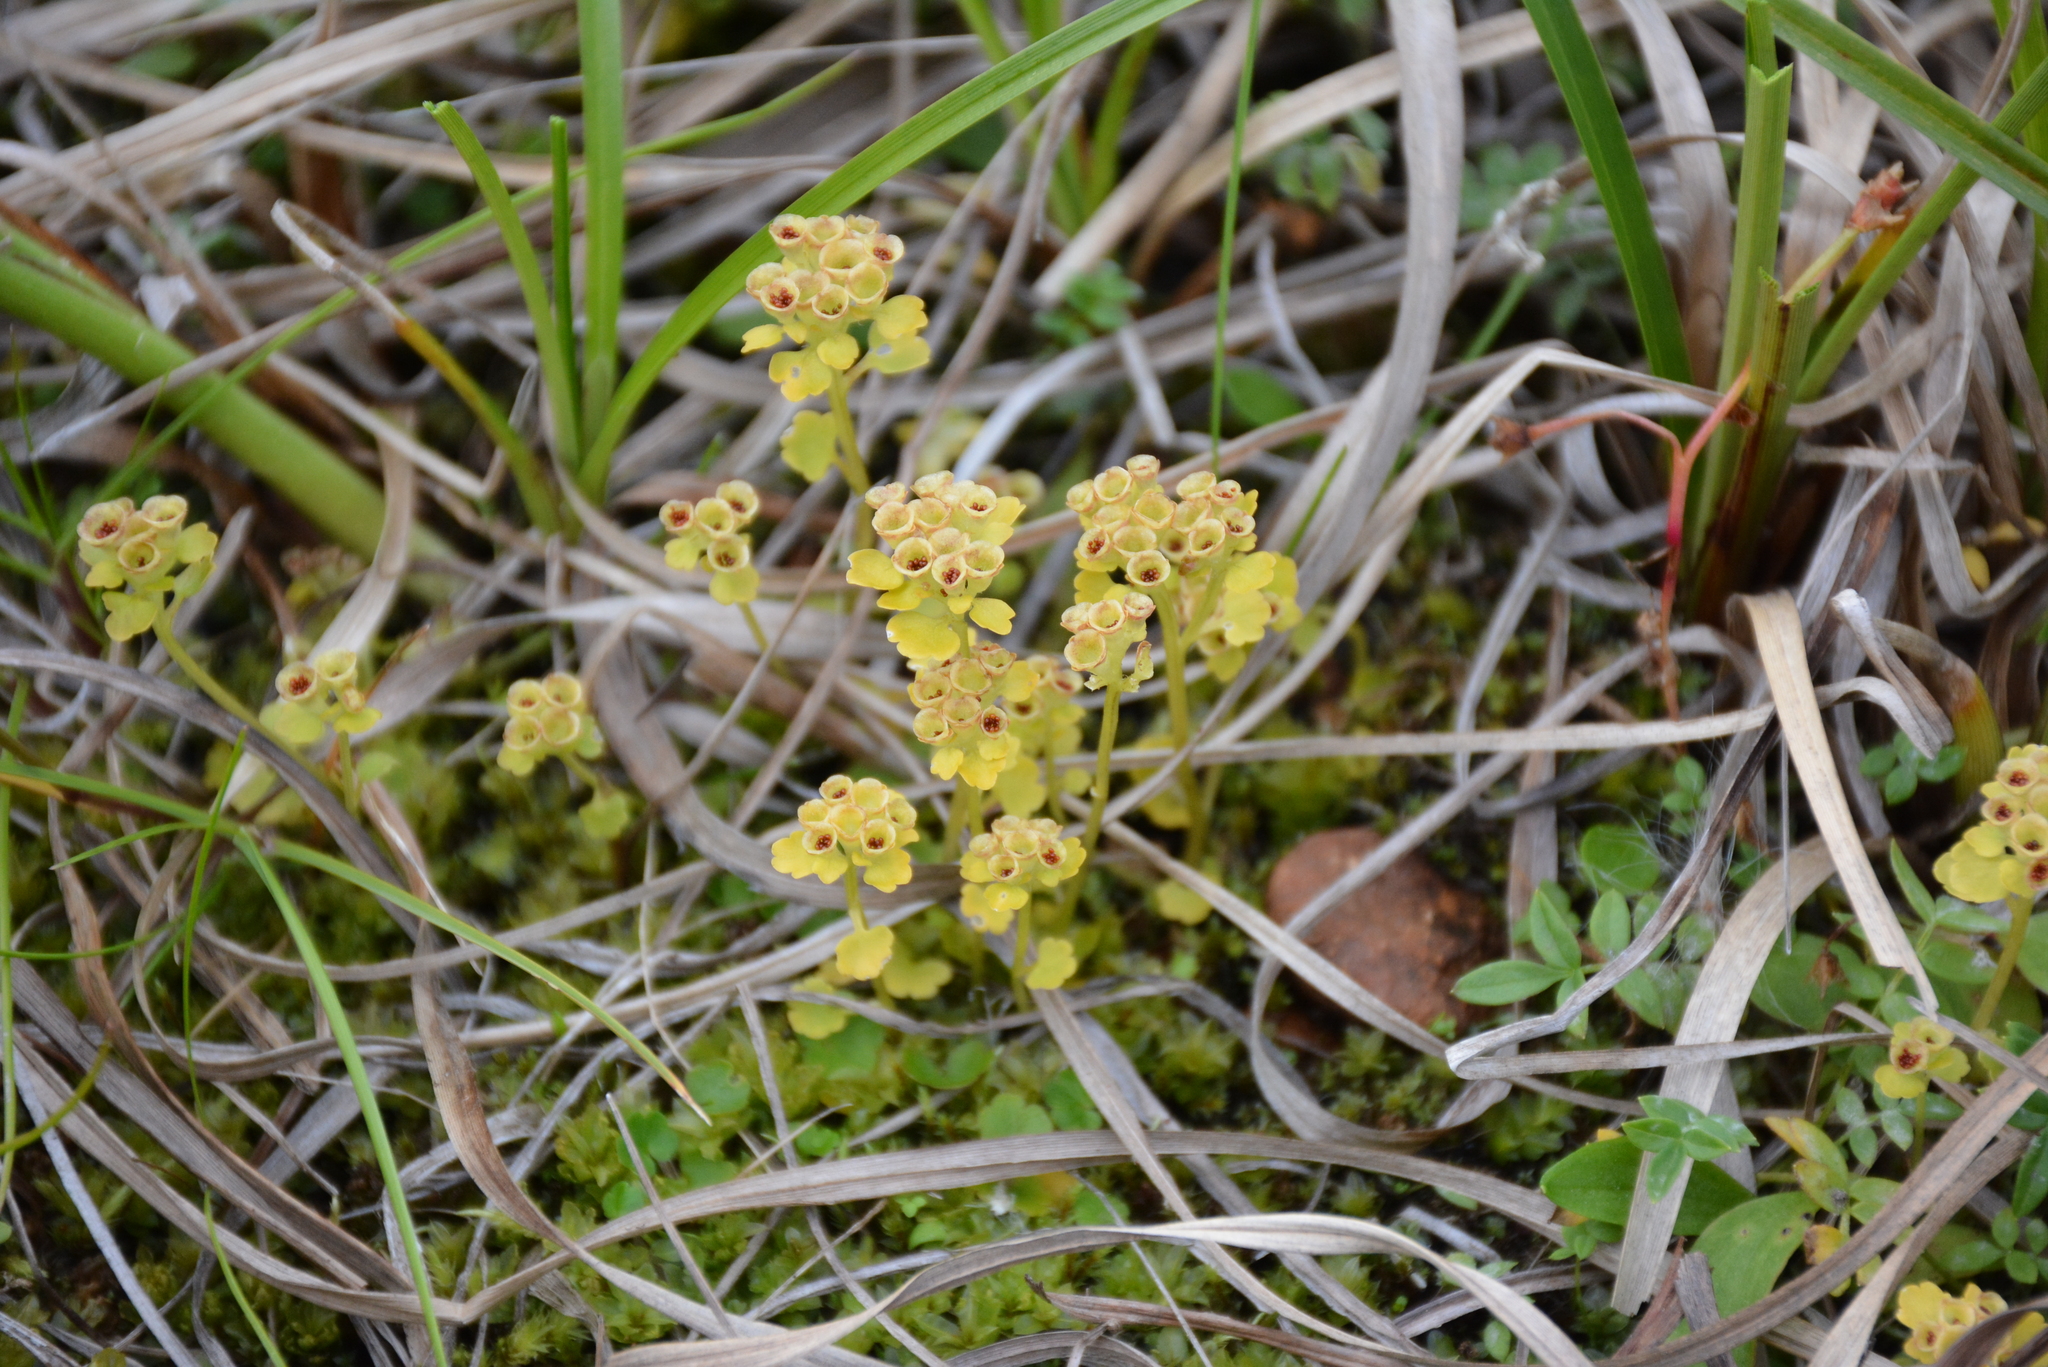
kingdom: Plantae
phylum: Tracheophyta
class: Magnoliopsida
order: Saxifragales
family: Saxifragaceae
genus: Chrysosplenium
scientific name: Chrysosplenium wrightii
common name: Wright's golden carpet
